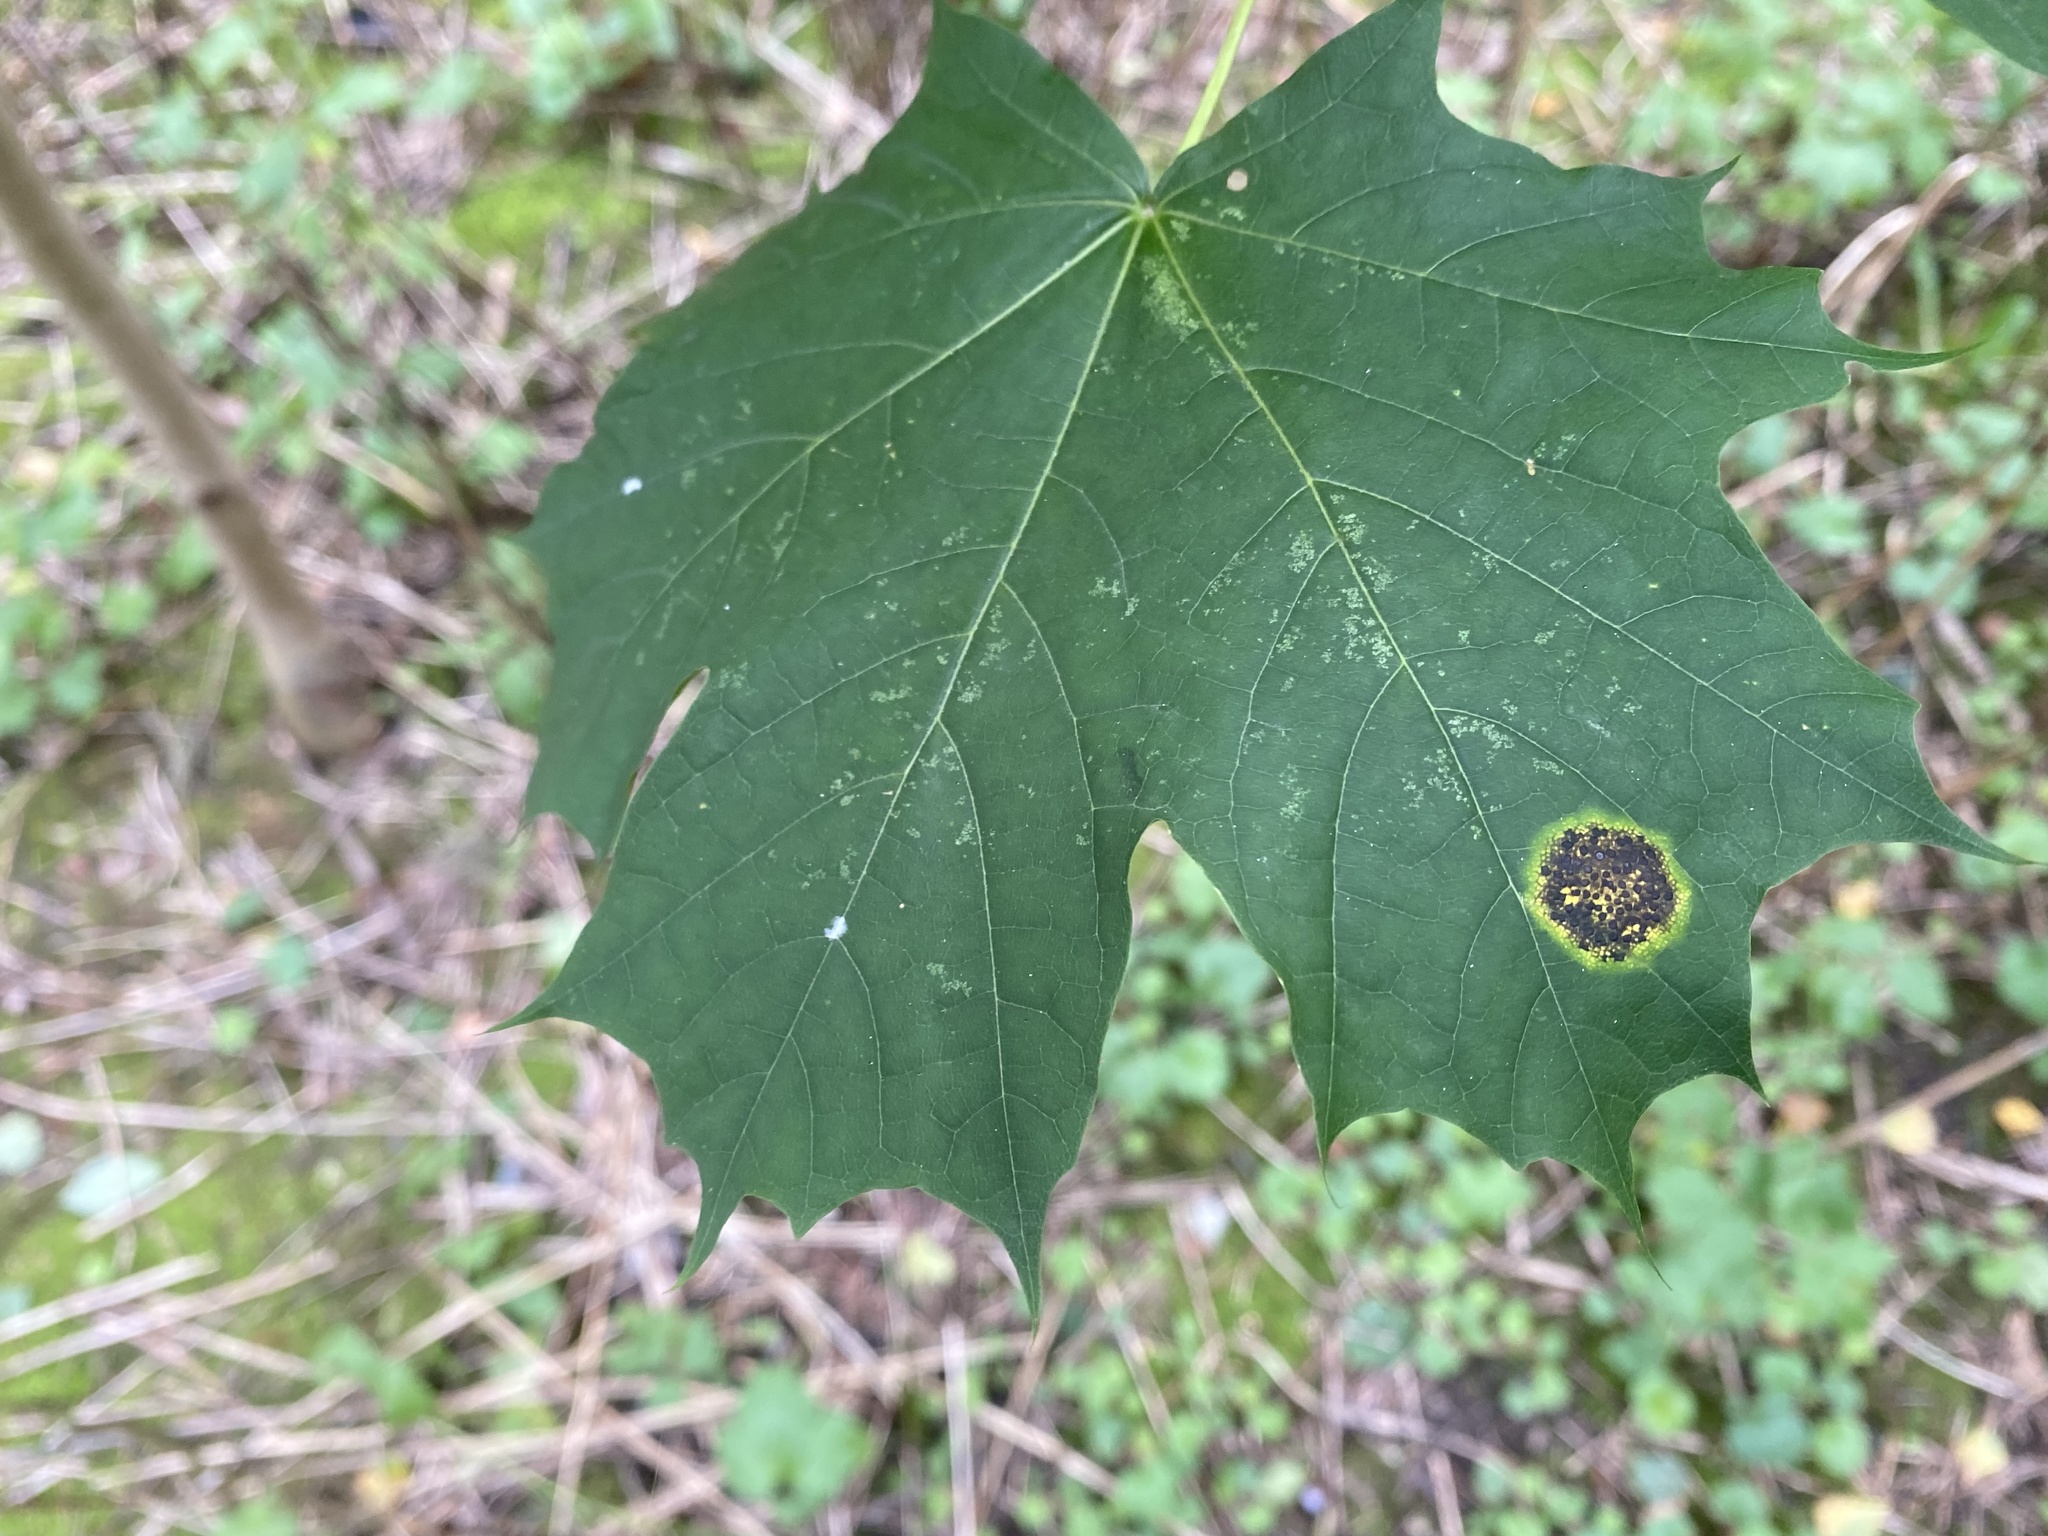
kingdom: Fungi
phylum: Ascomycota
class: Leotiomycetes
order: Rhytismatales
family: Rhytismataceae
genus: Rhytisma
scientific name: Rhytisma acerinum
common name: European tar spot
